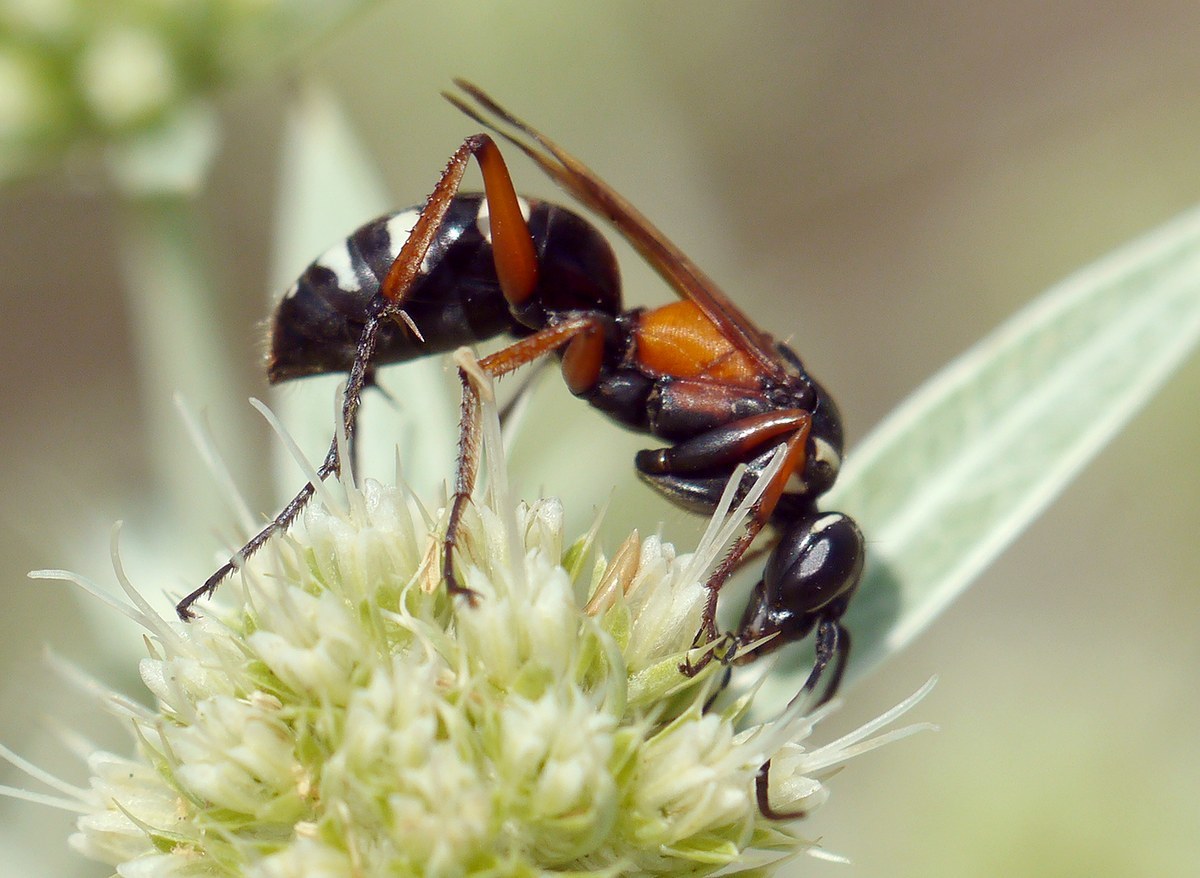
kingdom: Animalia
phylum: Arthropoda
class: Insecta
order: Hymenoptera
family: Pompilidae
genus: Cryptocheilus
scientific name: Cryptocheilus fabricii
